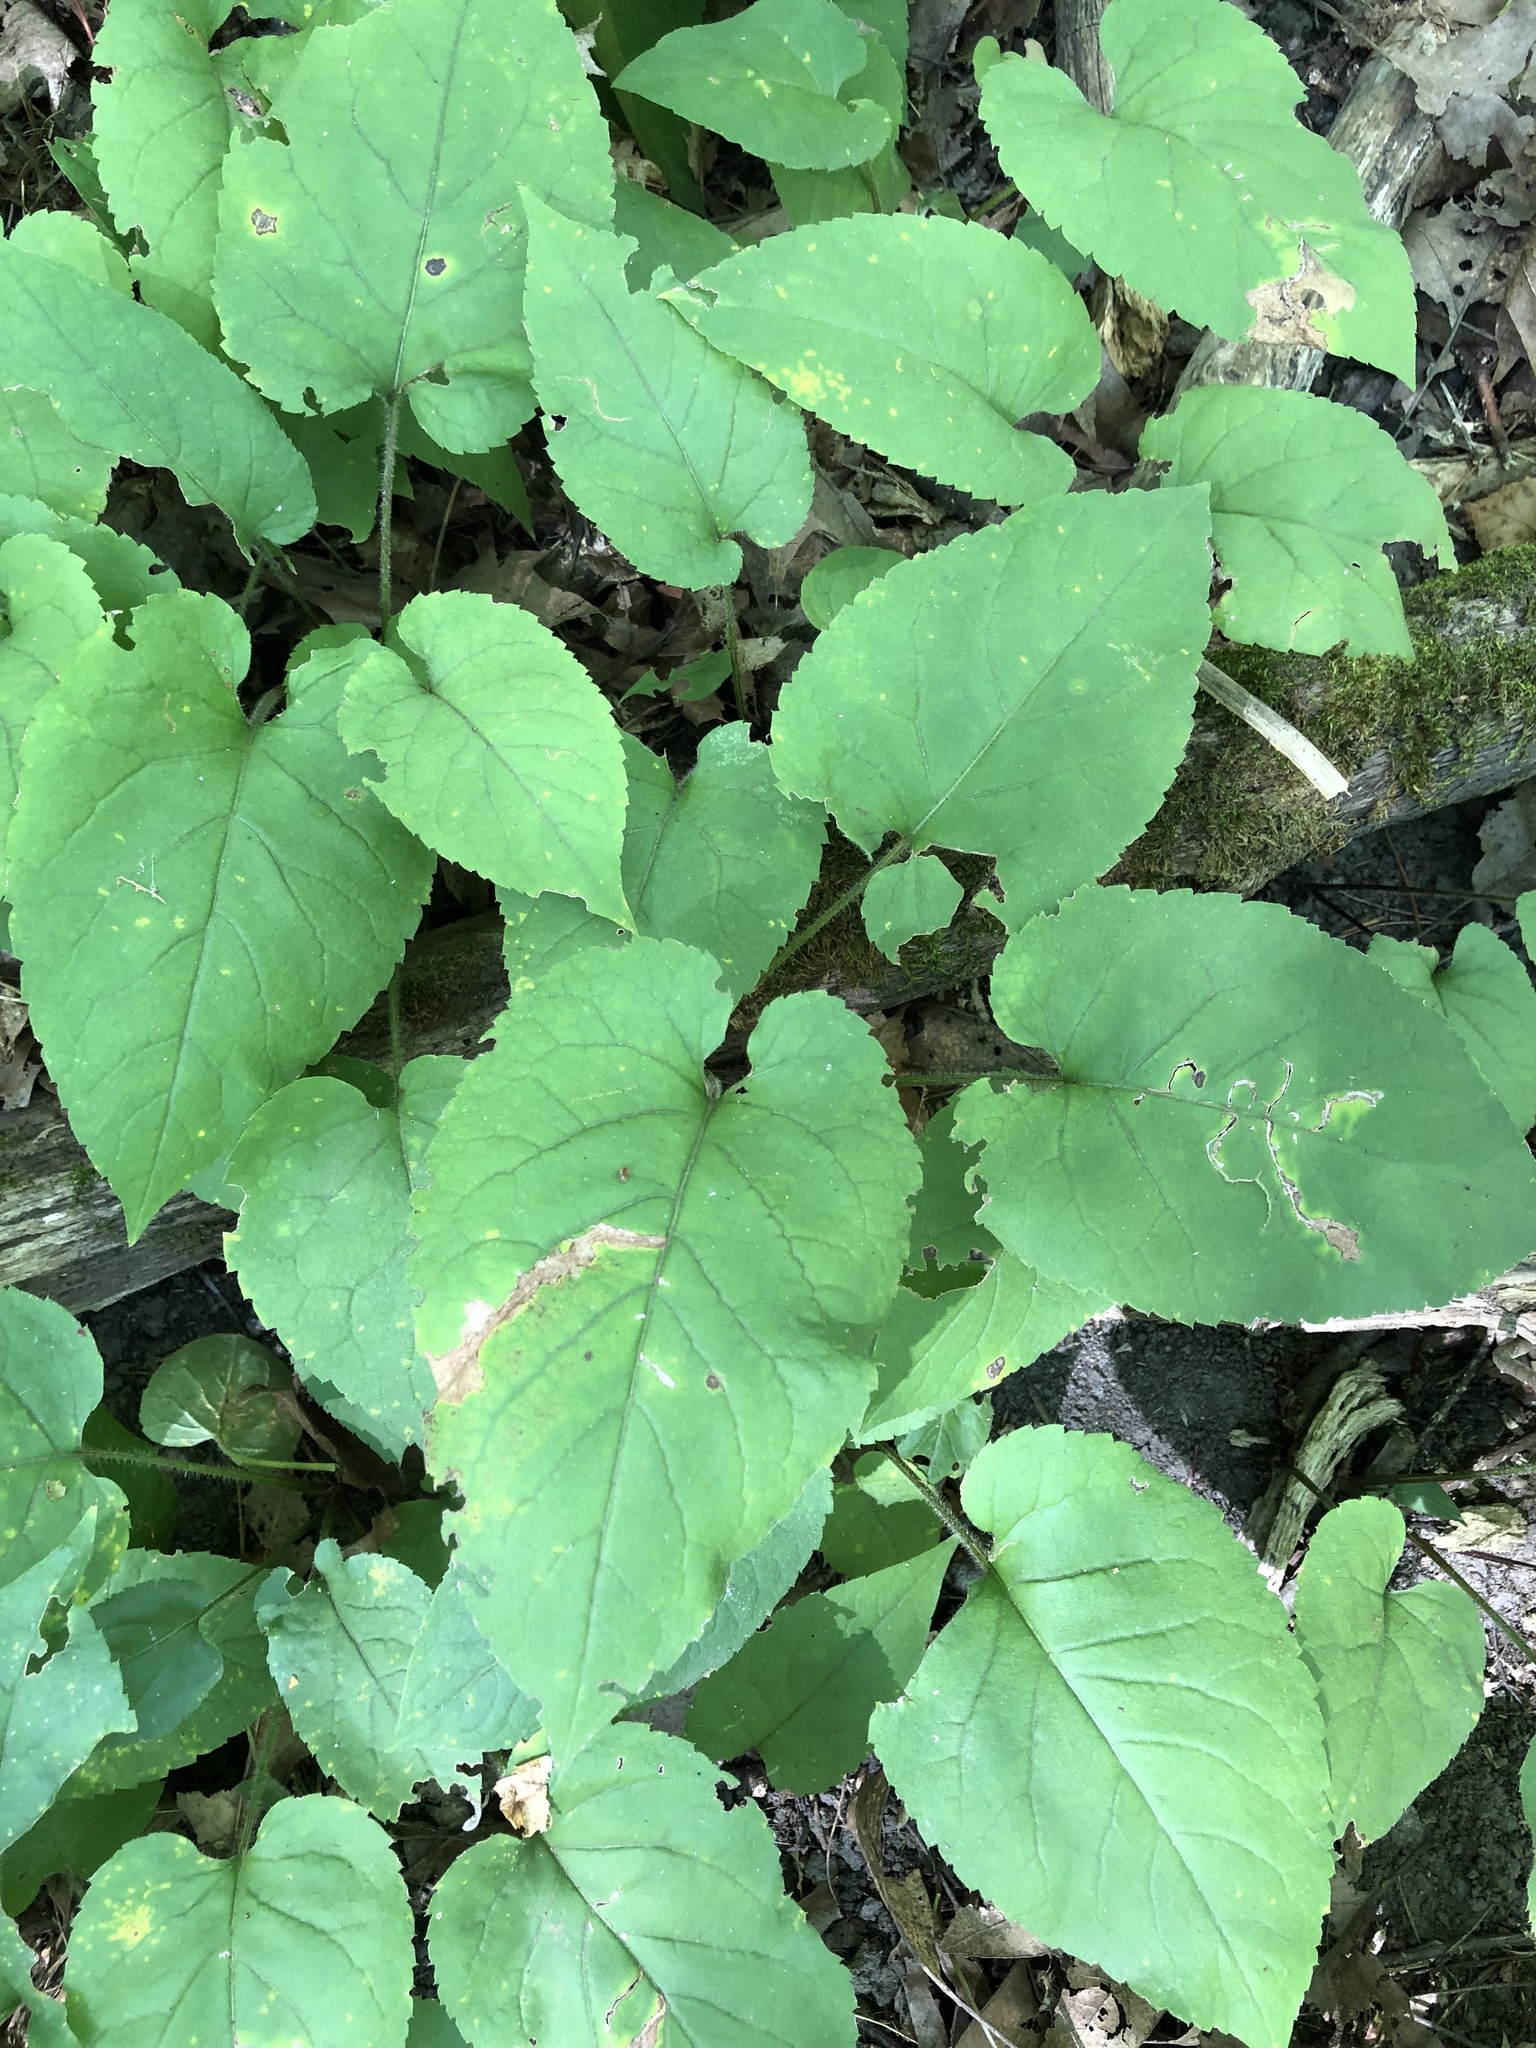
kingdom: Plantae
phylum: Tracheophyta
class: Magnoliopsida
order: Asterales
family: Asteraceae
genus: Eurybia
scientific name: Eurybia macrophylla
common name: Big-leaved aster
